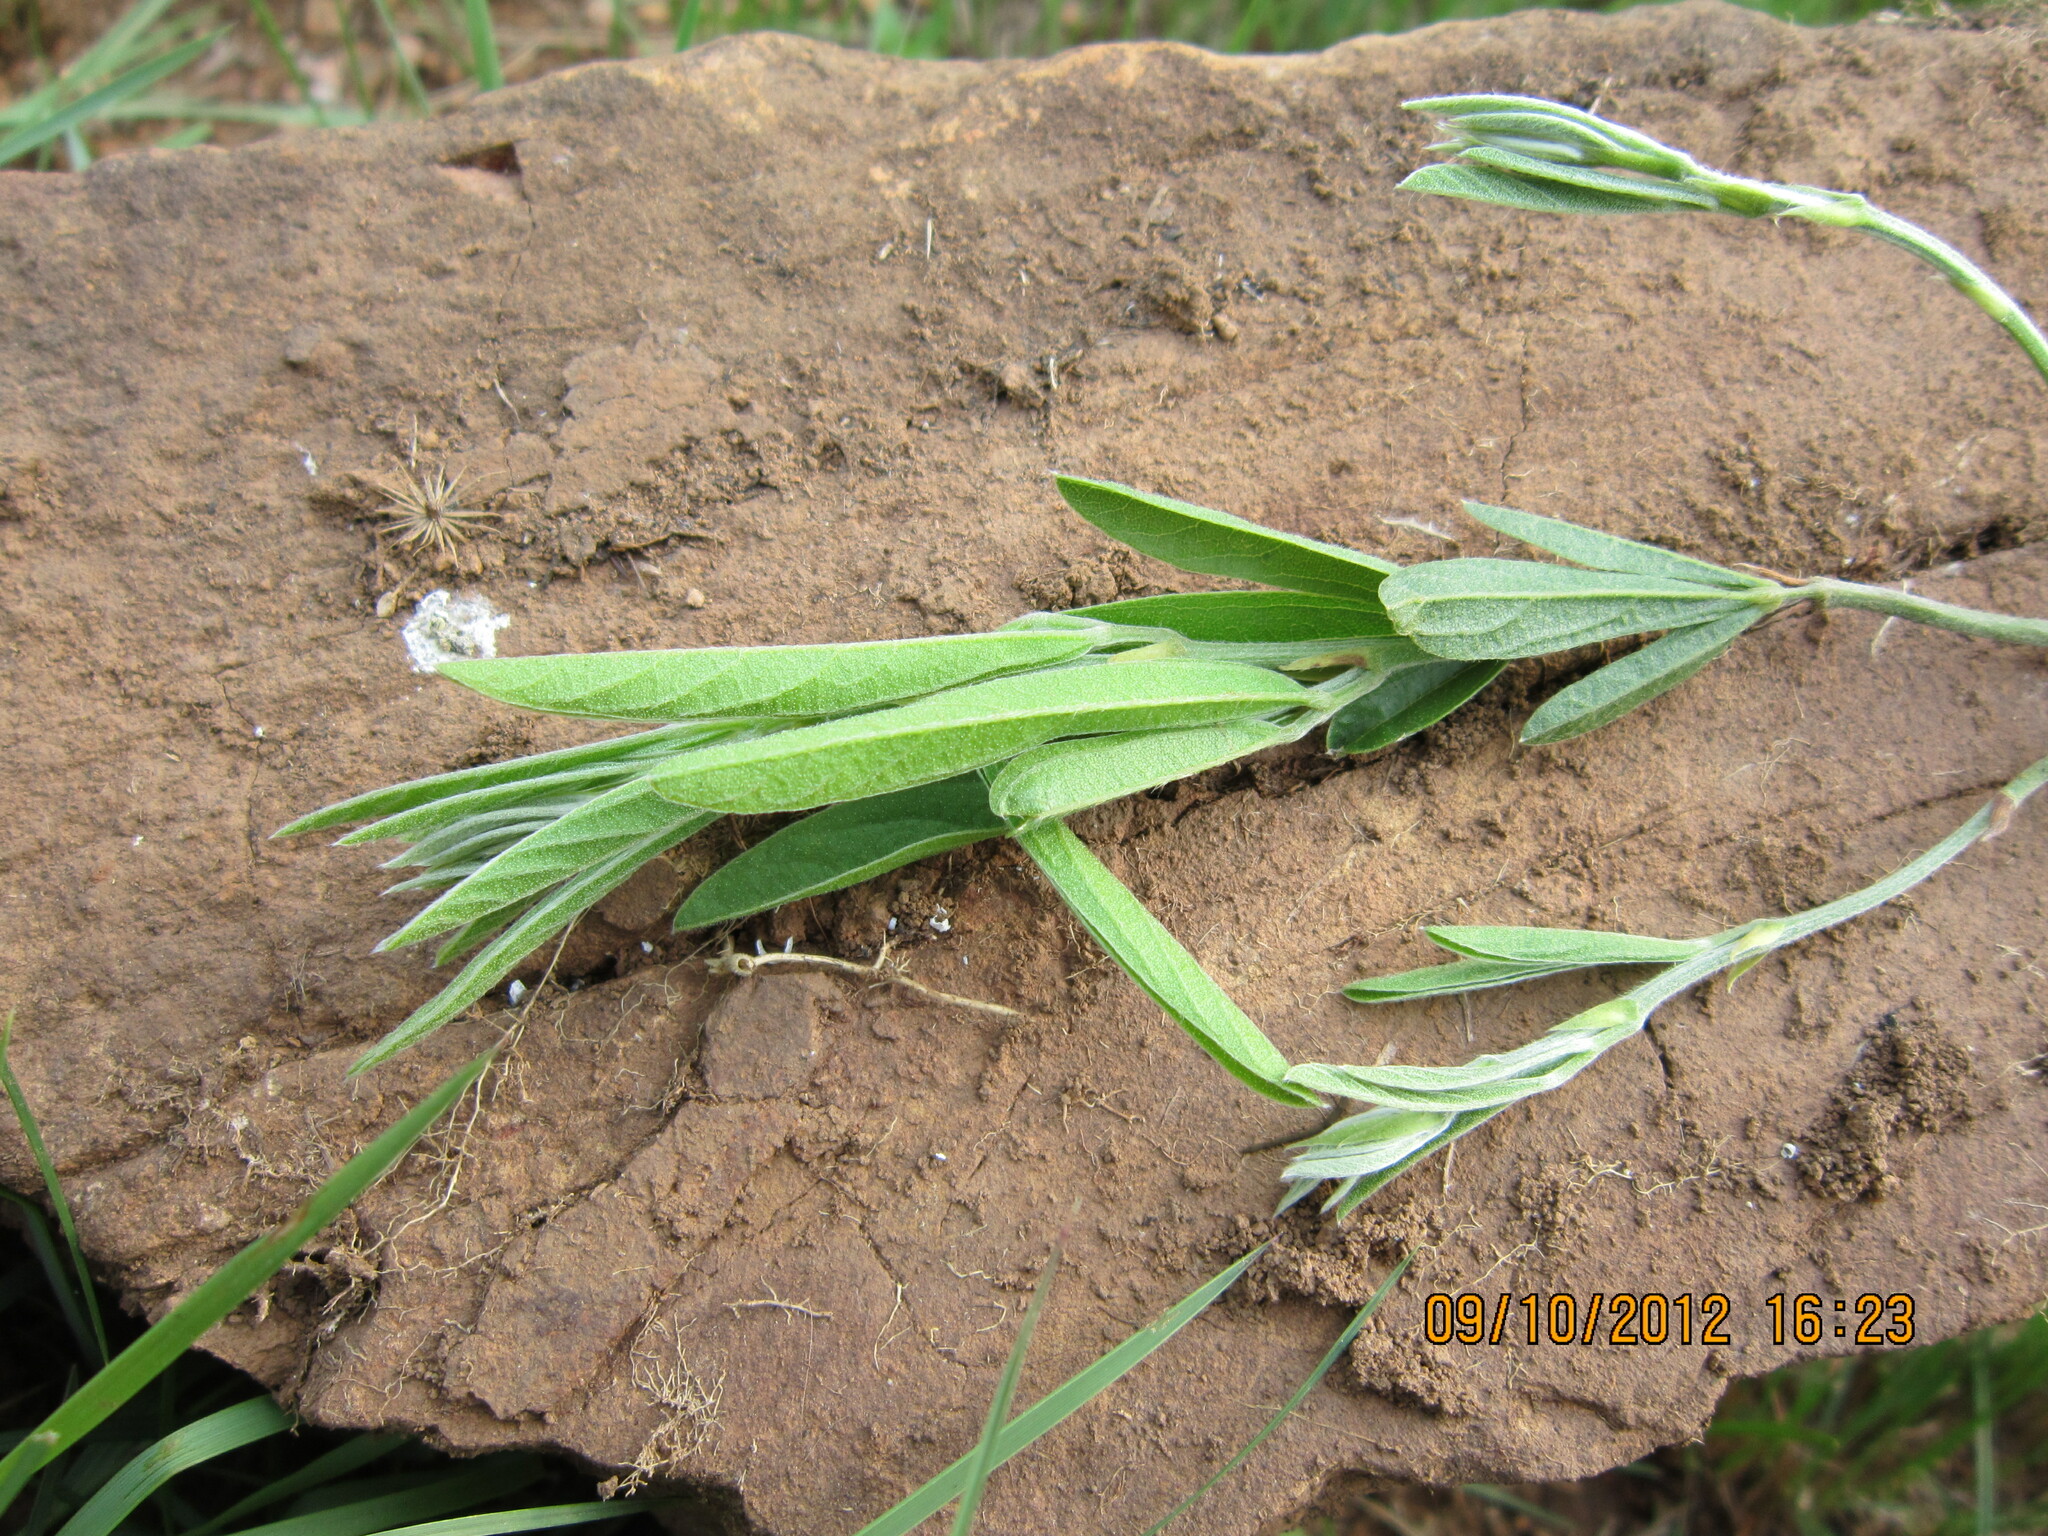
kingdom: Plantae
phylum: Tracheophyta
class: Magnoliopsida
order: Fabales
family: Fabaceae
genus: Eriosema
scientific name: Eriosema kraussianum
